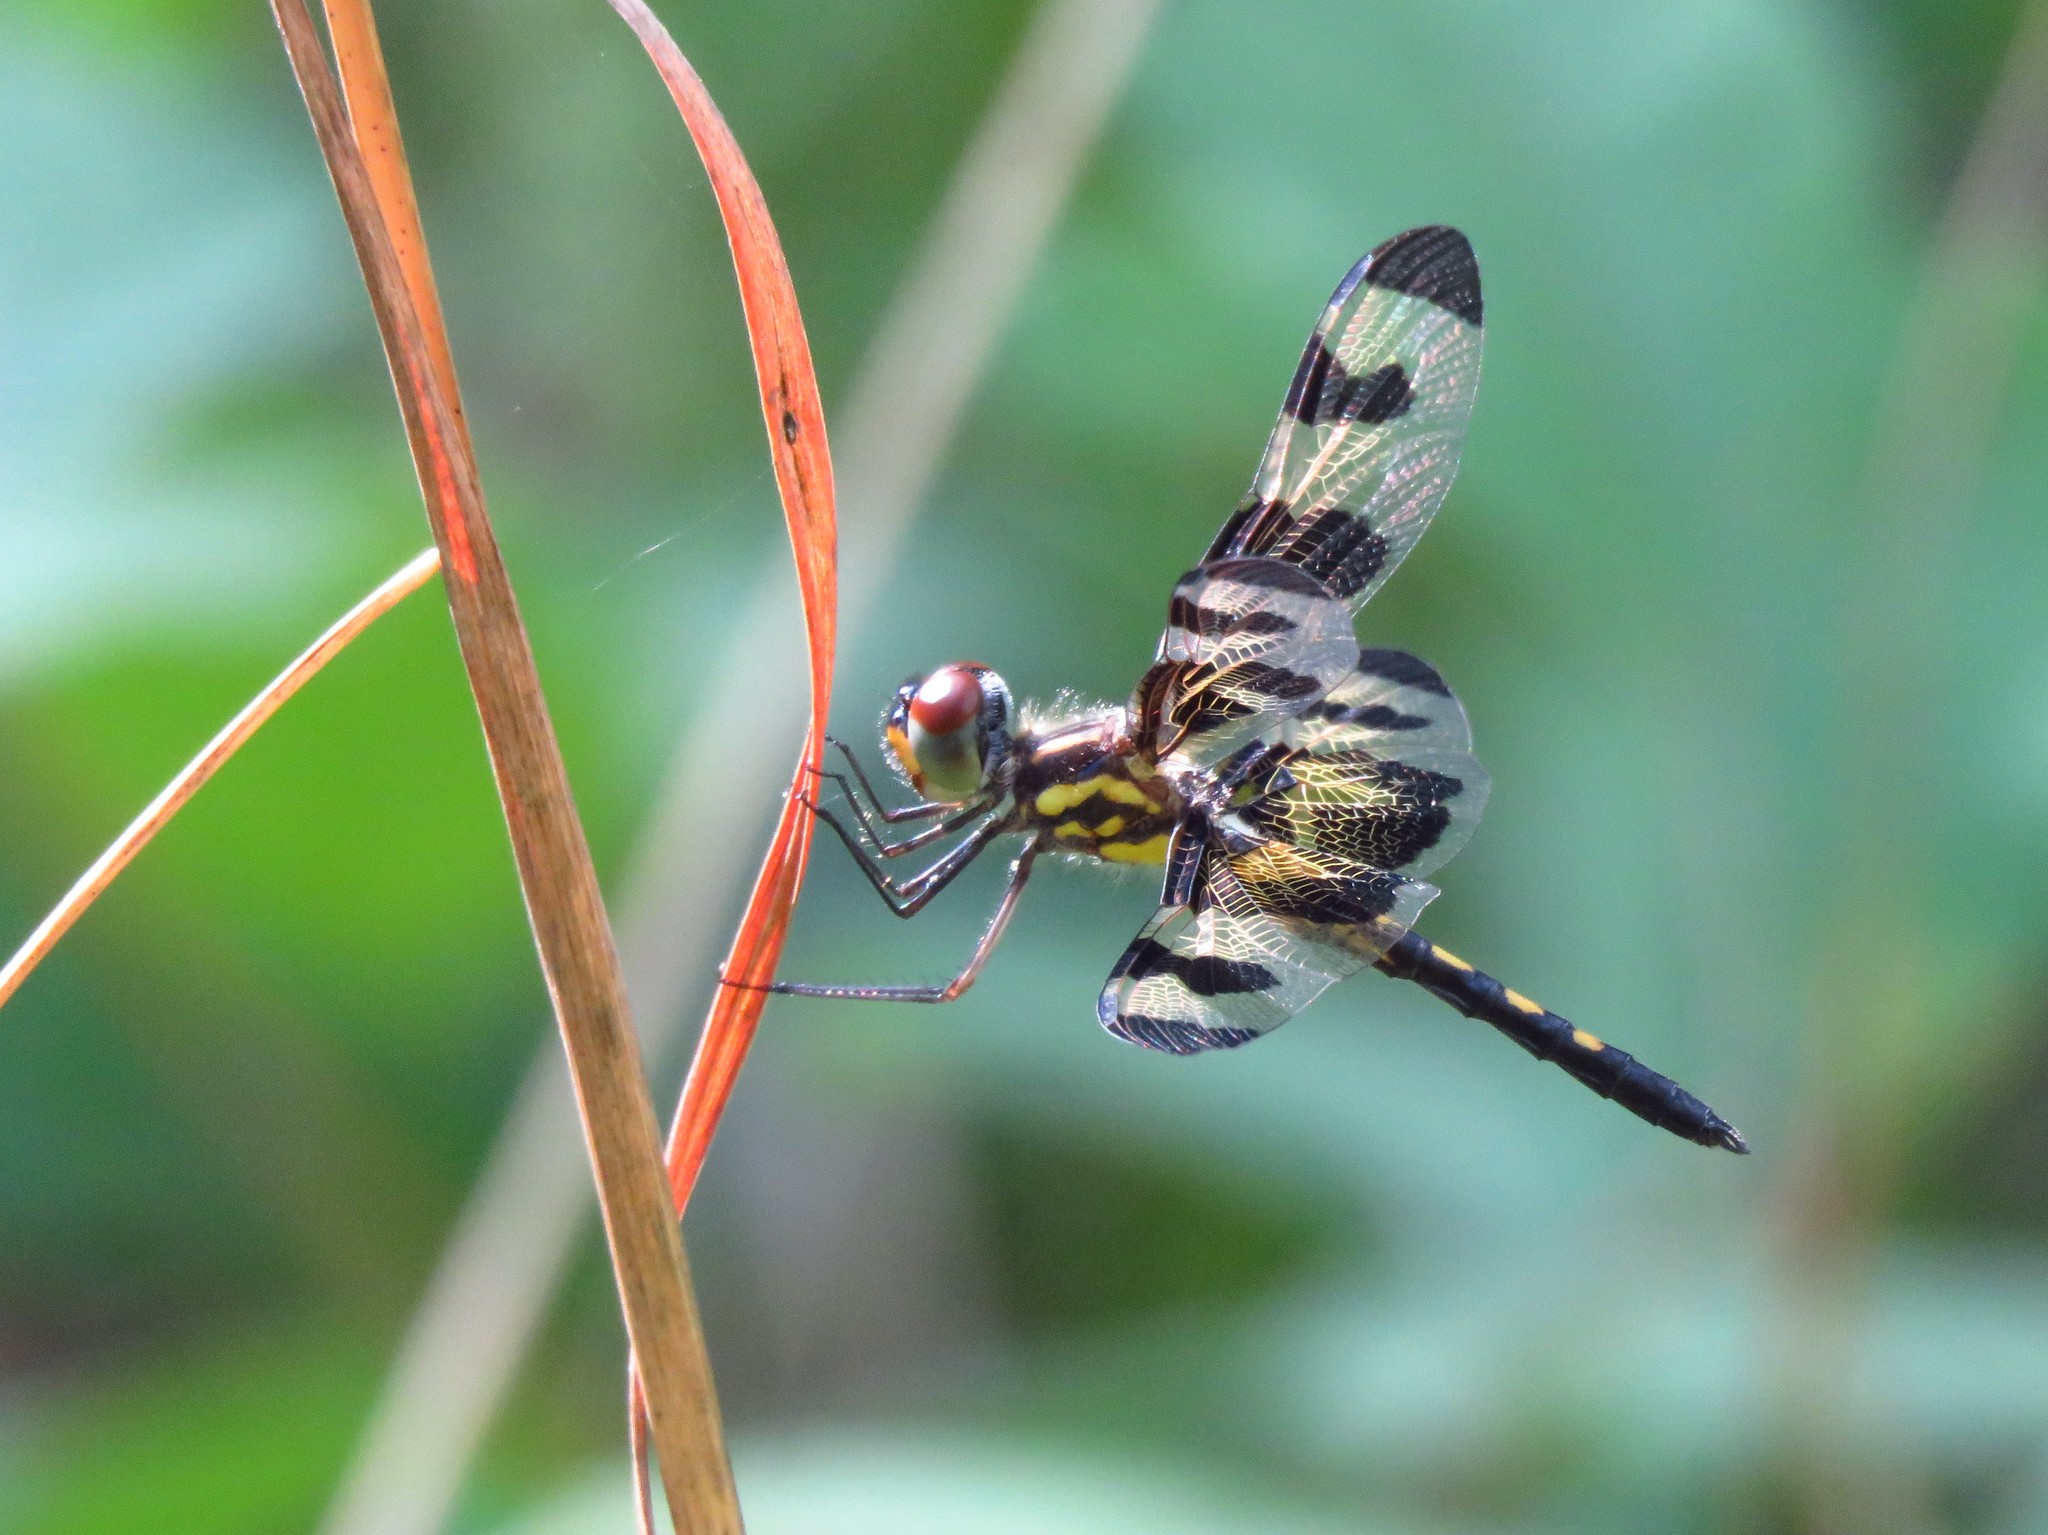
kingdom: Animalia
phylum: Arthropoda
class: Insecta
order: Odonata
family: Libellulidae
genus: Celithemis
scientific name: Celithemis fasciata
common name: Banded pennant
